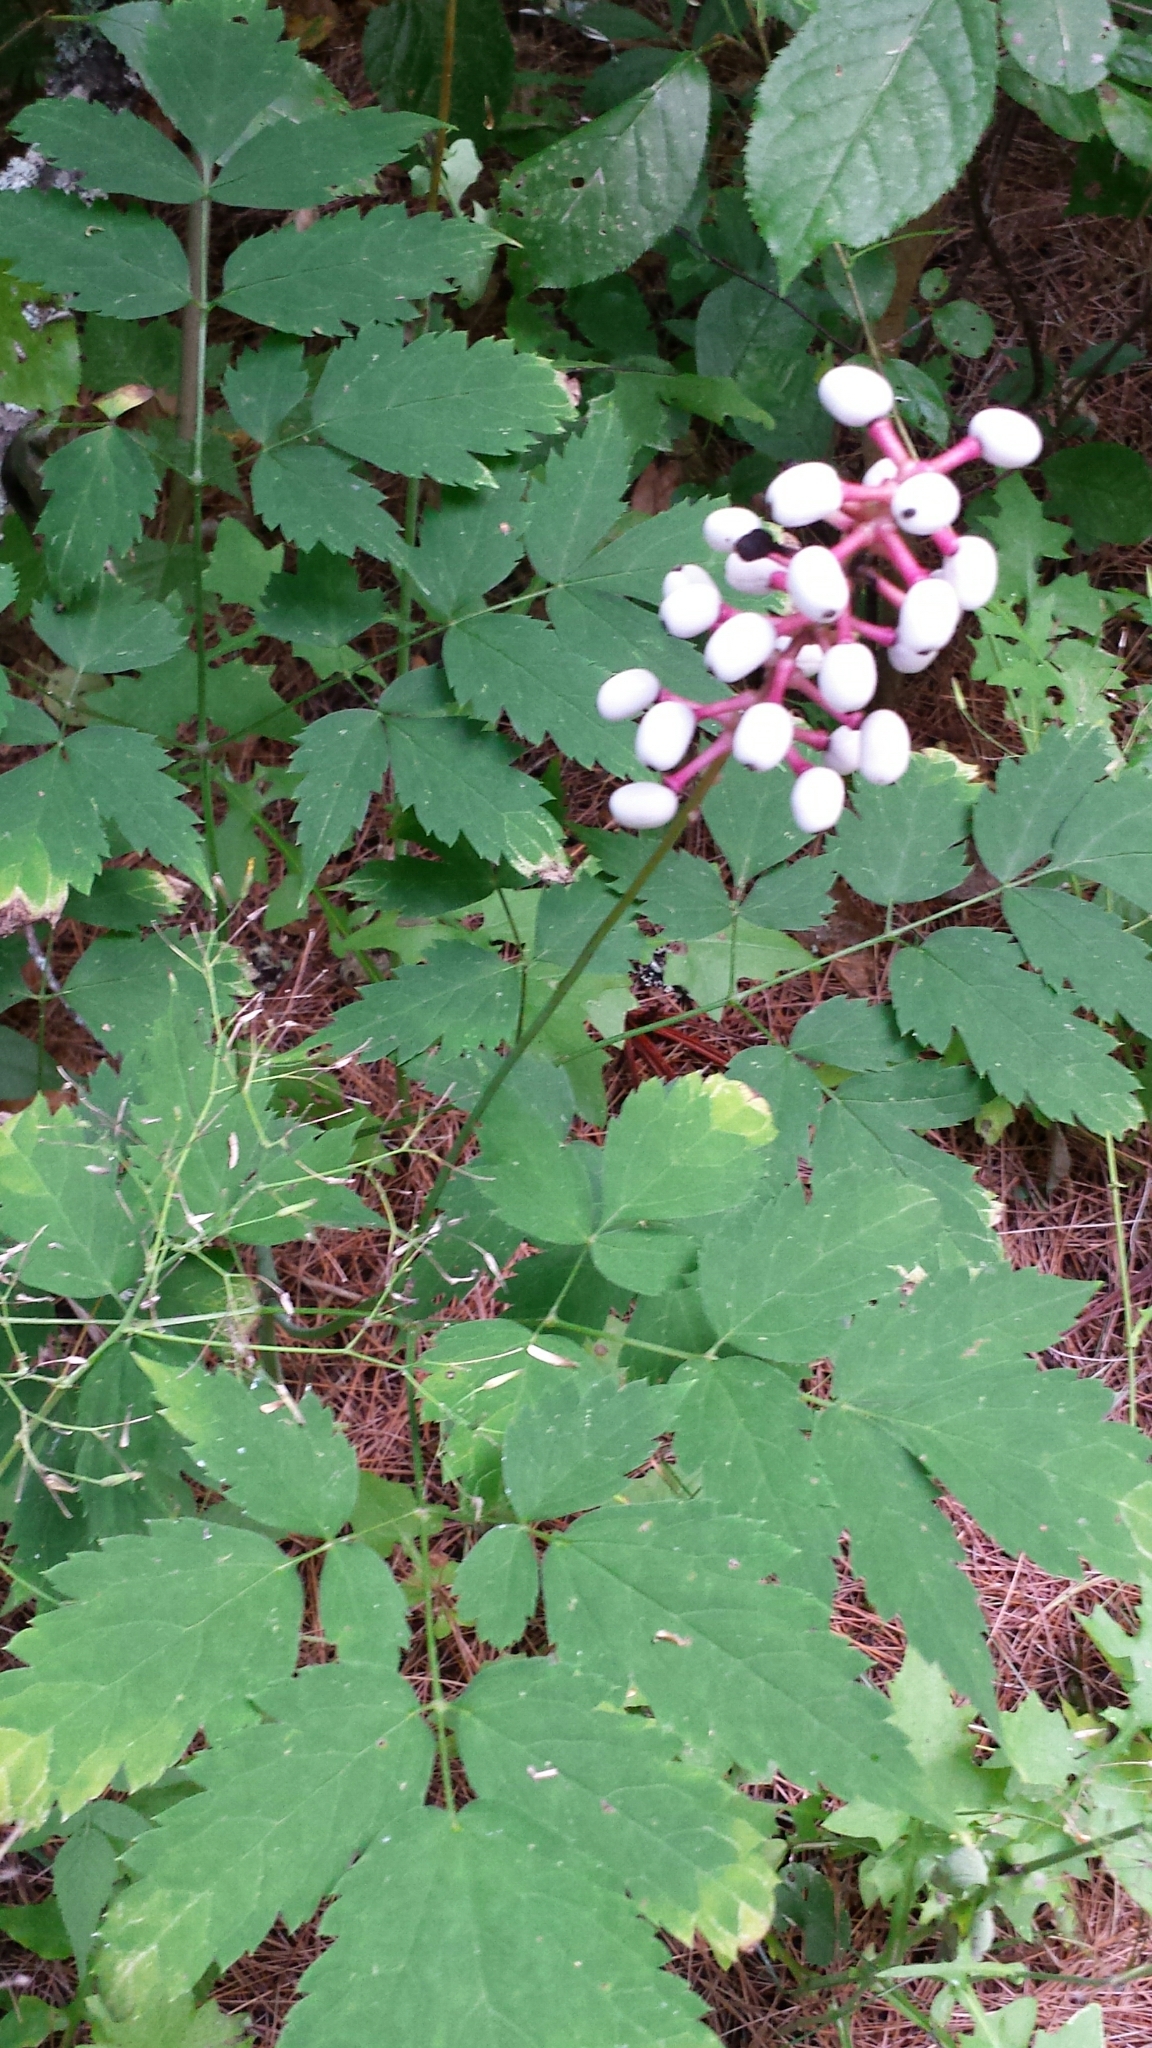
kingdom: Plantae
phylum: Tracheophyta
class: Magnoliopsida
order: Ranunculales
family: Ranunculaceae
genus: Actaea
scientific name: Actaea pachypoda
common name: Doll's-eyes
